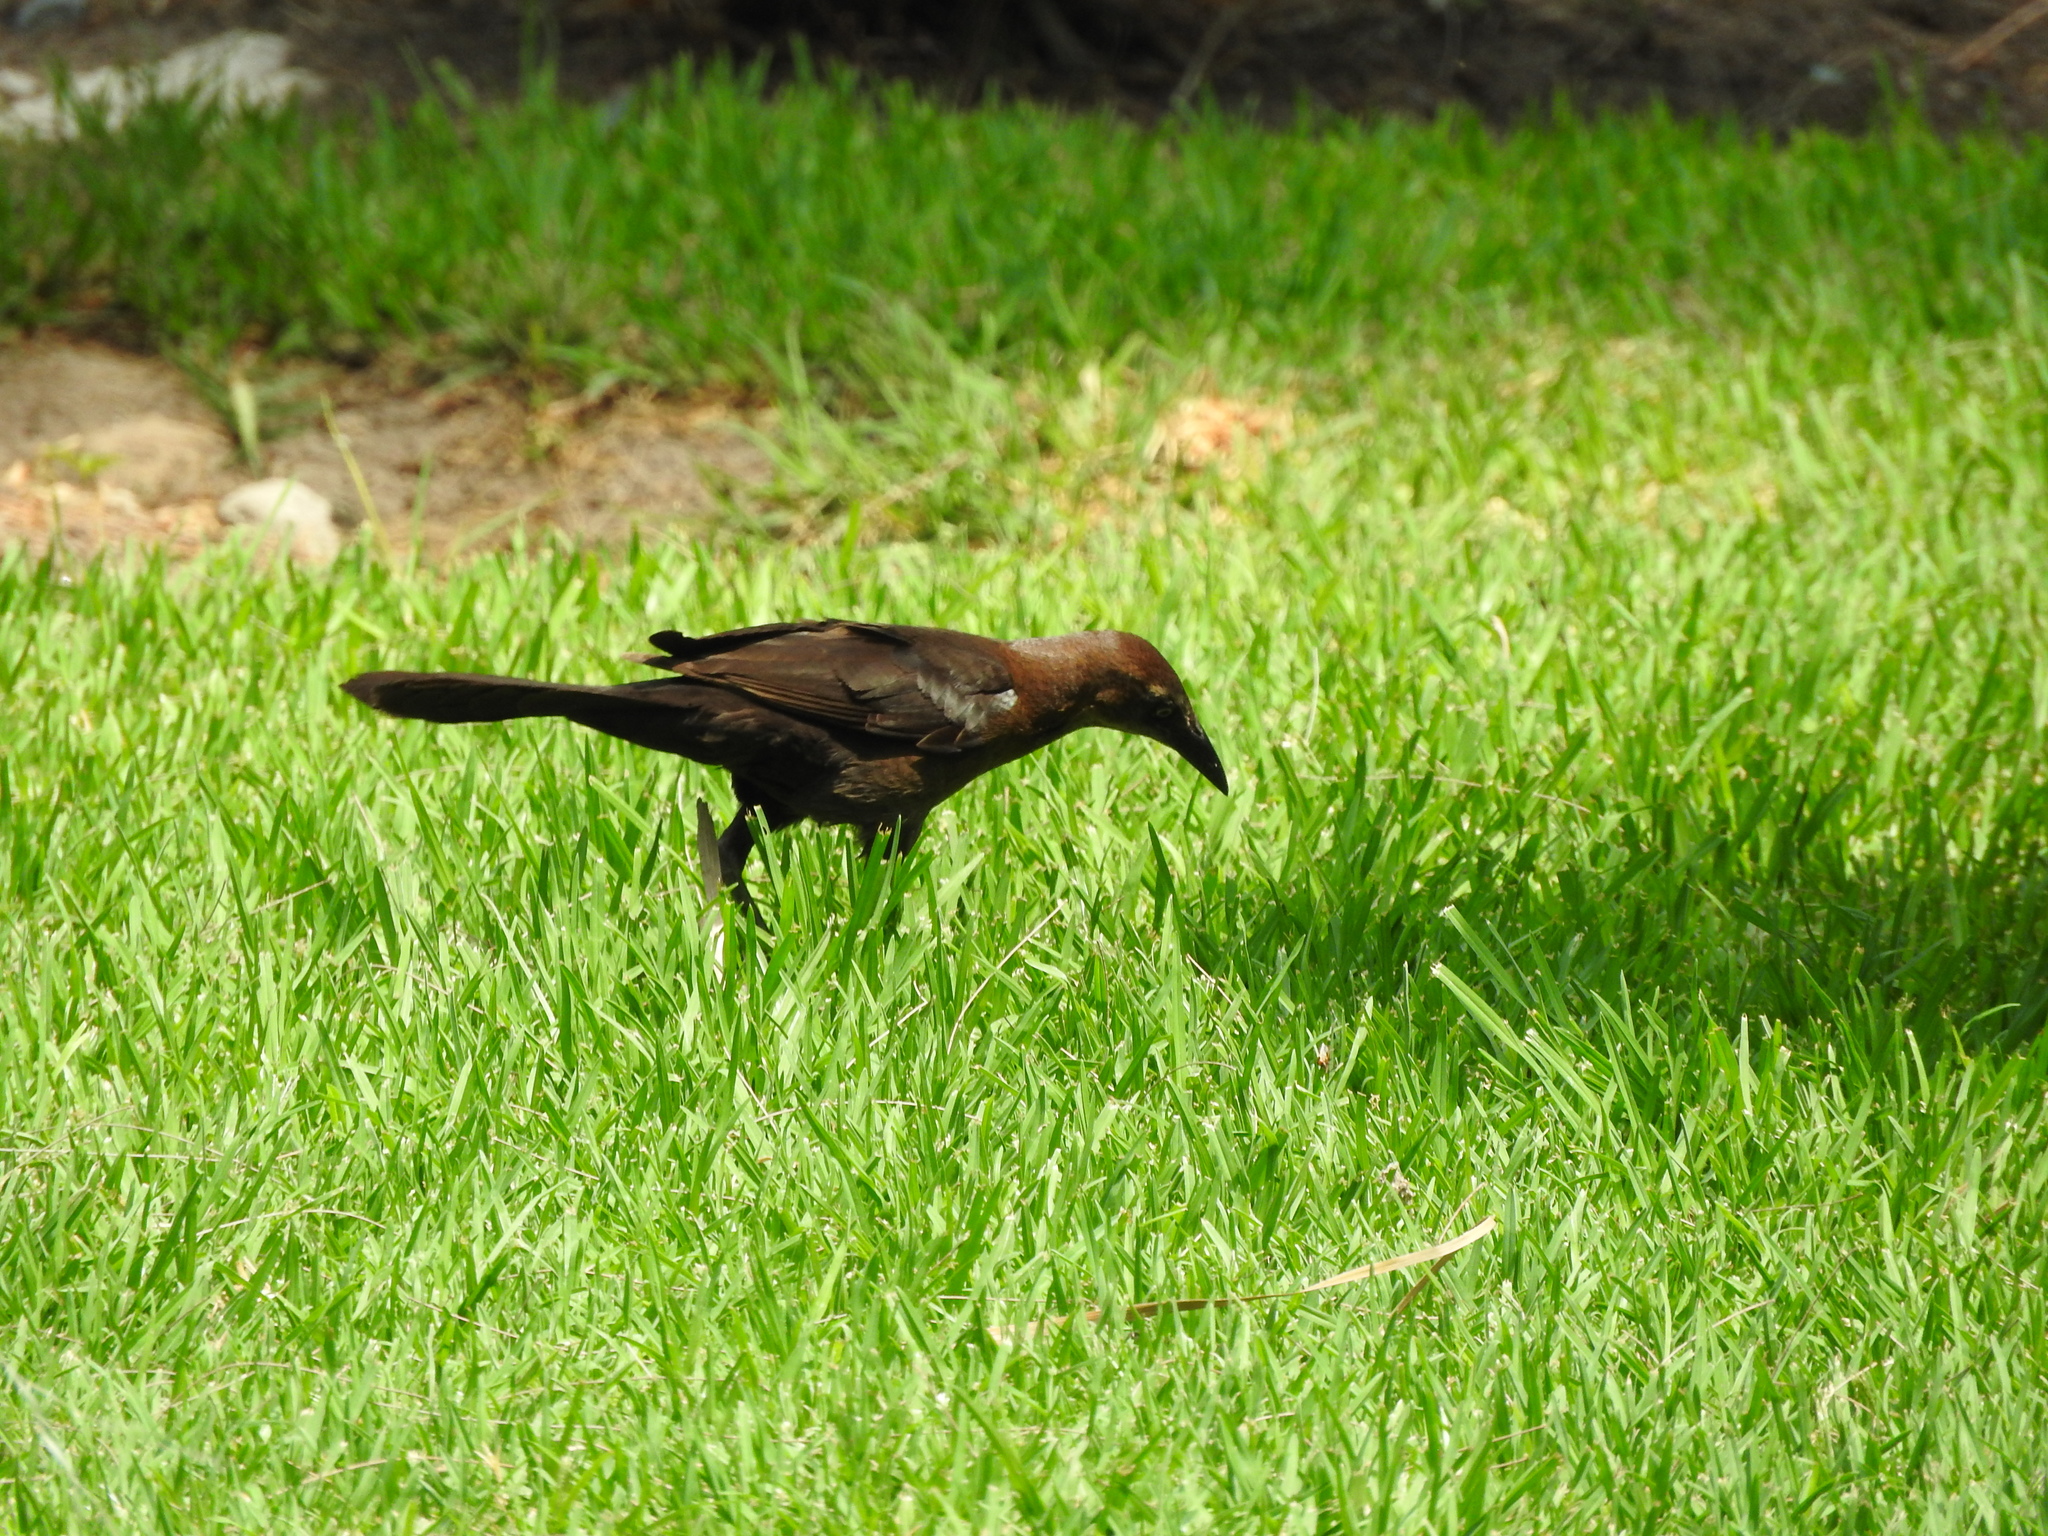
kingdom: Animalia
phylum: Chordata
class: Aves
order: Passeriformes
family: Icteridae
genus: Quiscalus
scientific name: Quiscalus mexicanus
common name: Great-tailed grackle
